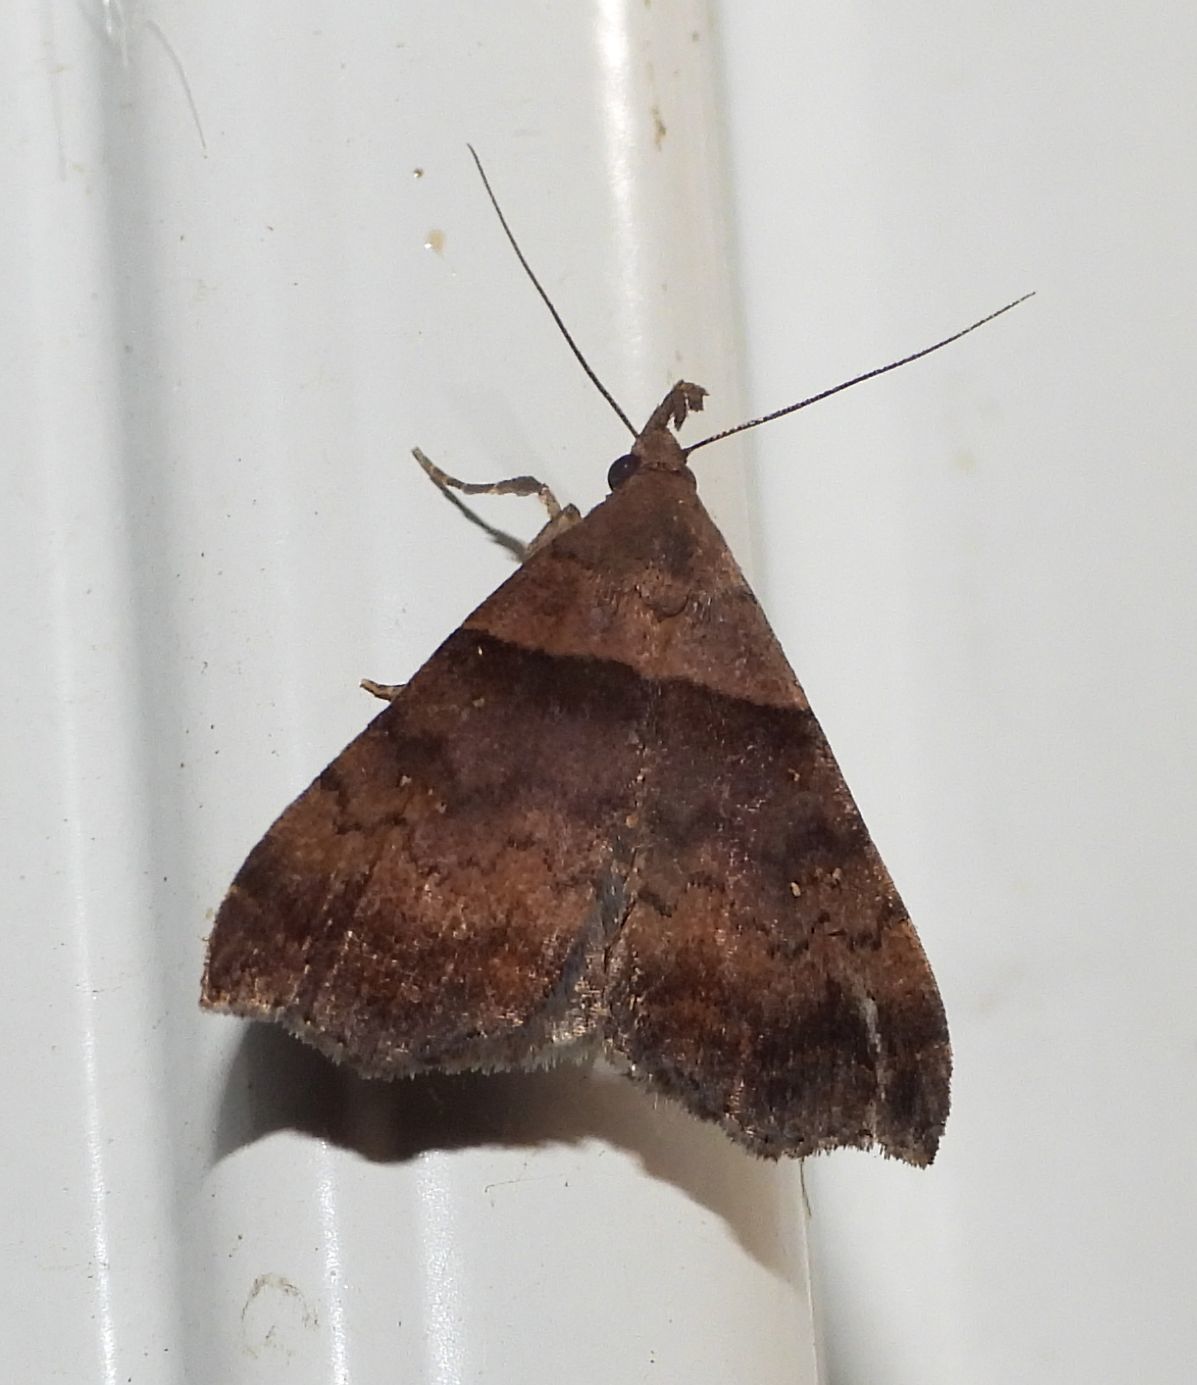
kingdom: Animalia
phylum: Arthropoda
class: Insecta
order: Lepidoptera
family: Erebidae
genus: Lascoria
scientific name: Lascoria ambigualis
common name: Ambiguous moth
